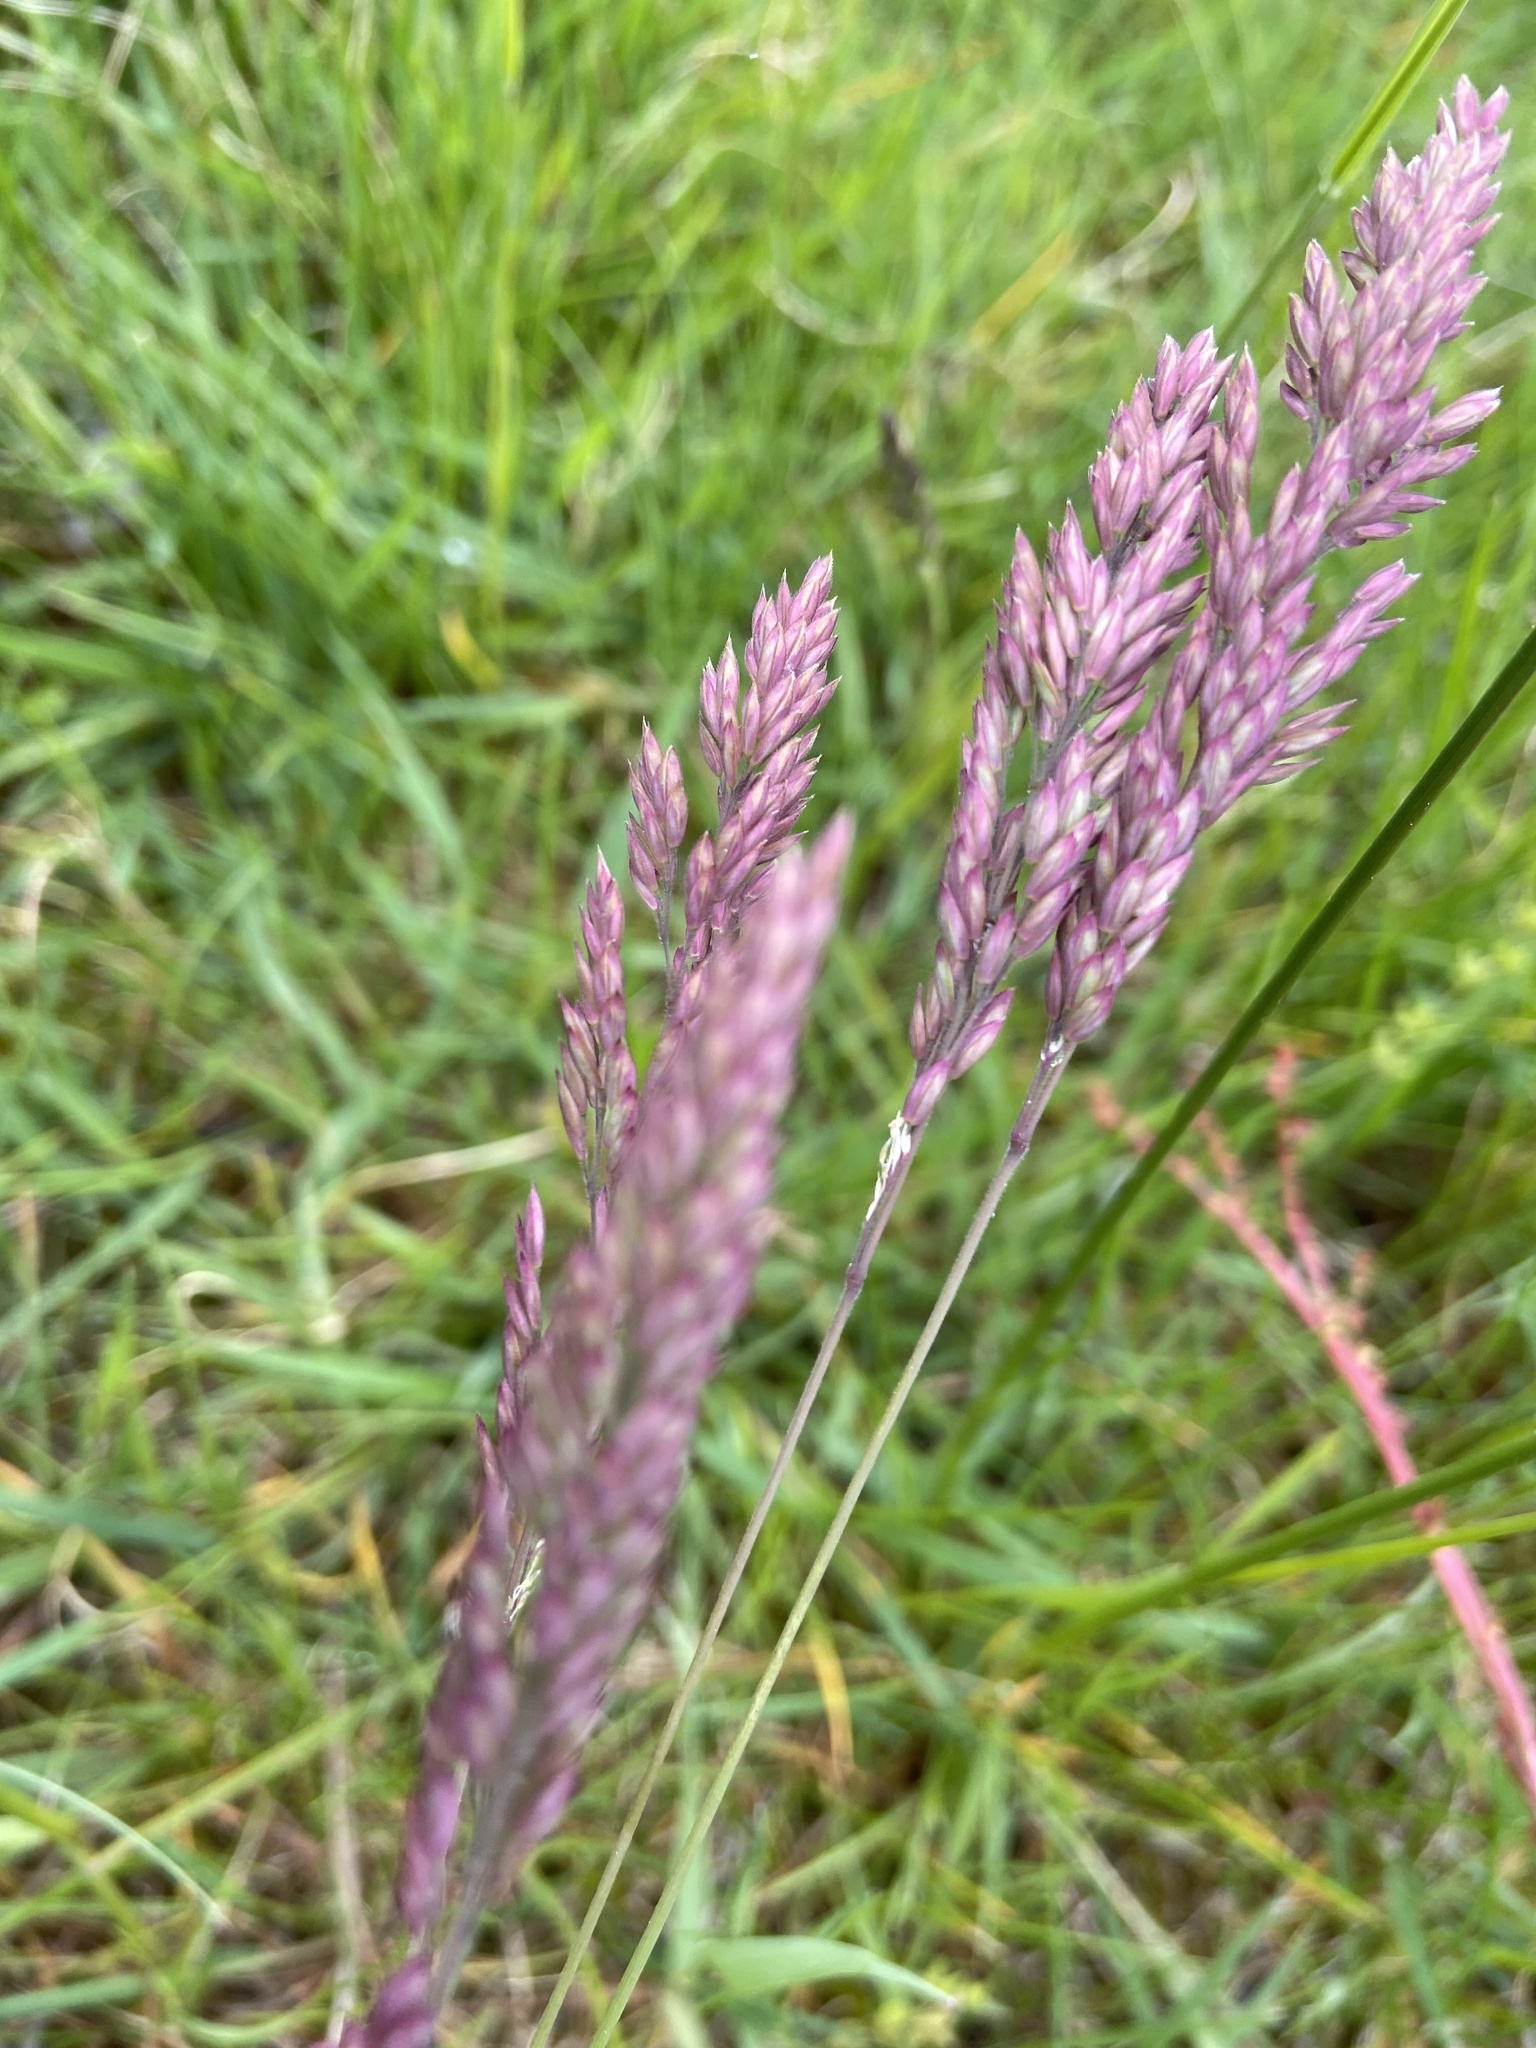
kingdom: Plantae
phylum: Tracheophyta
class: Liliopsida
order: Poales
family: Poaceae
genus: Holcus
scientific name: Holcus lanatus
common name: Yorkshire-fog
